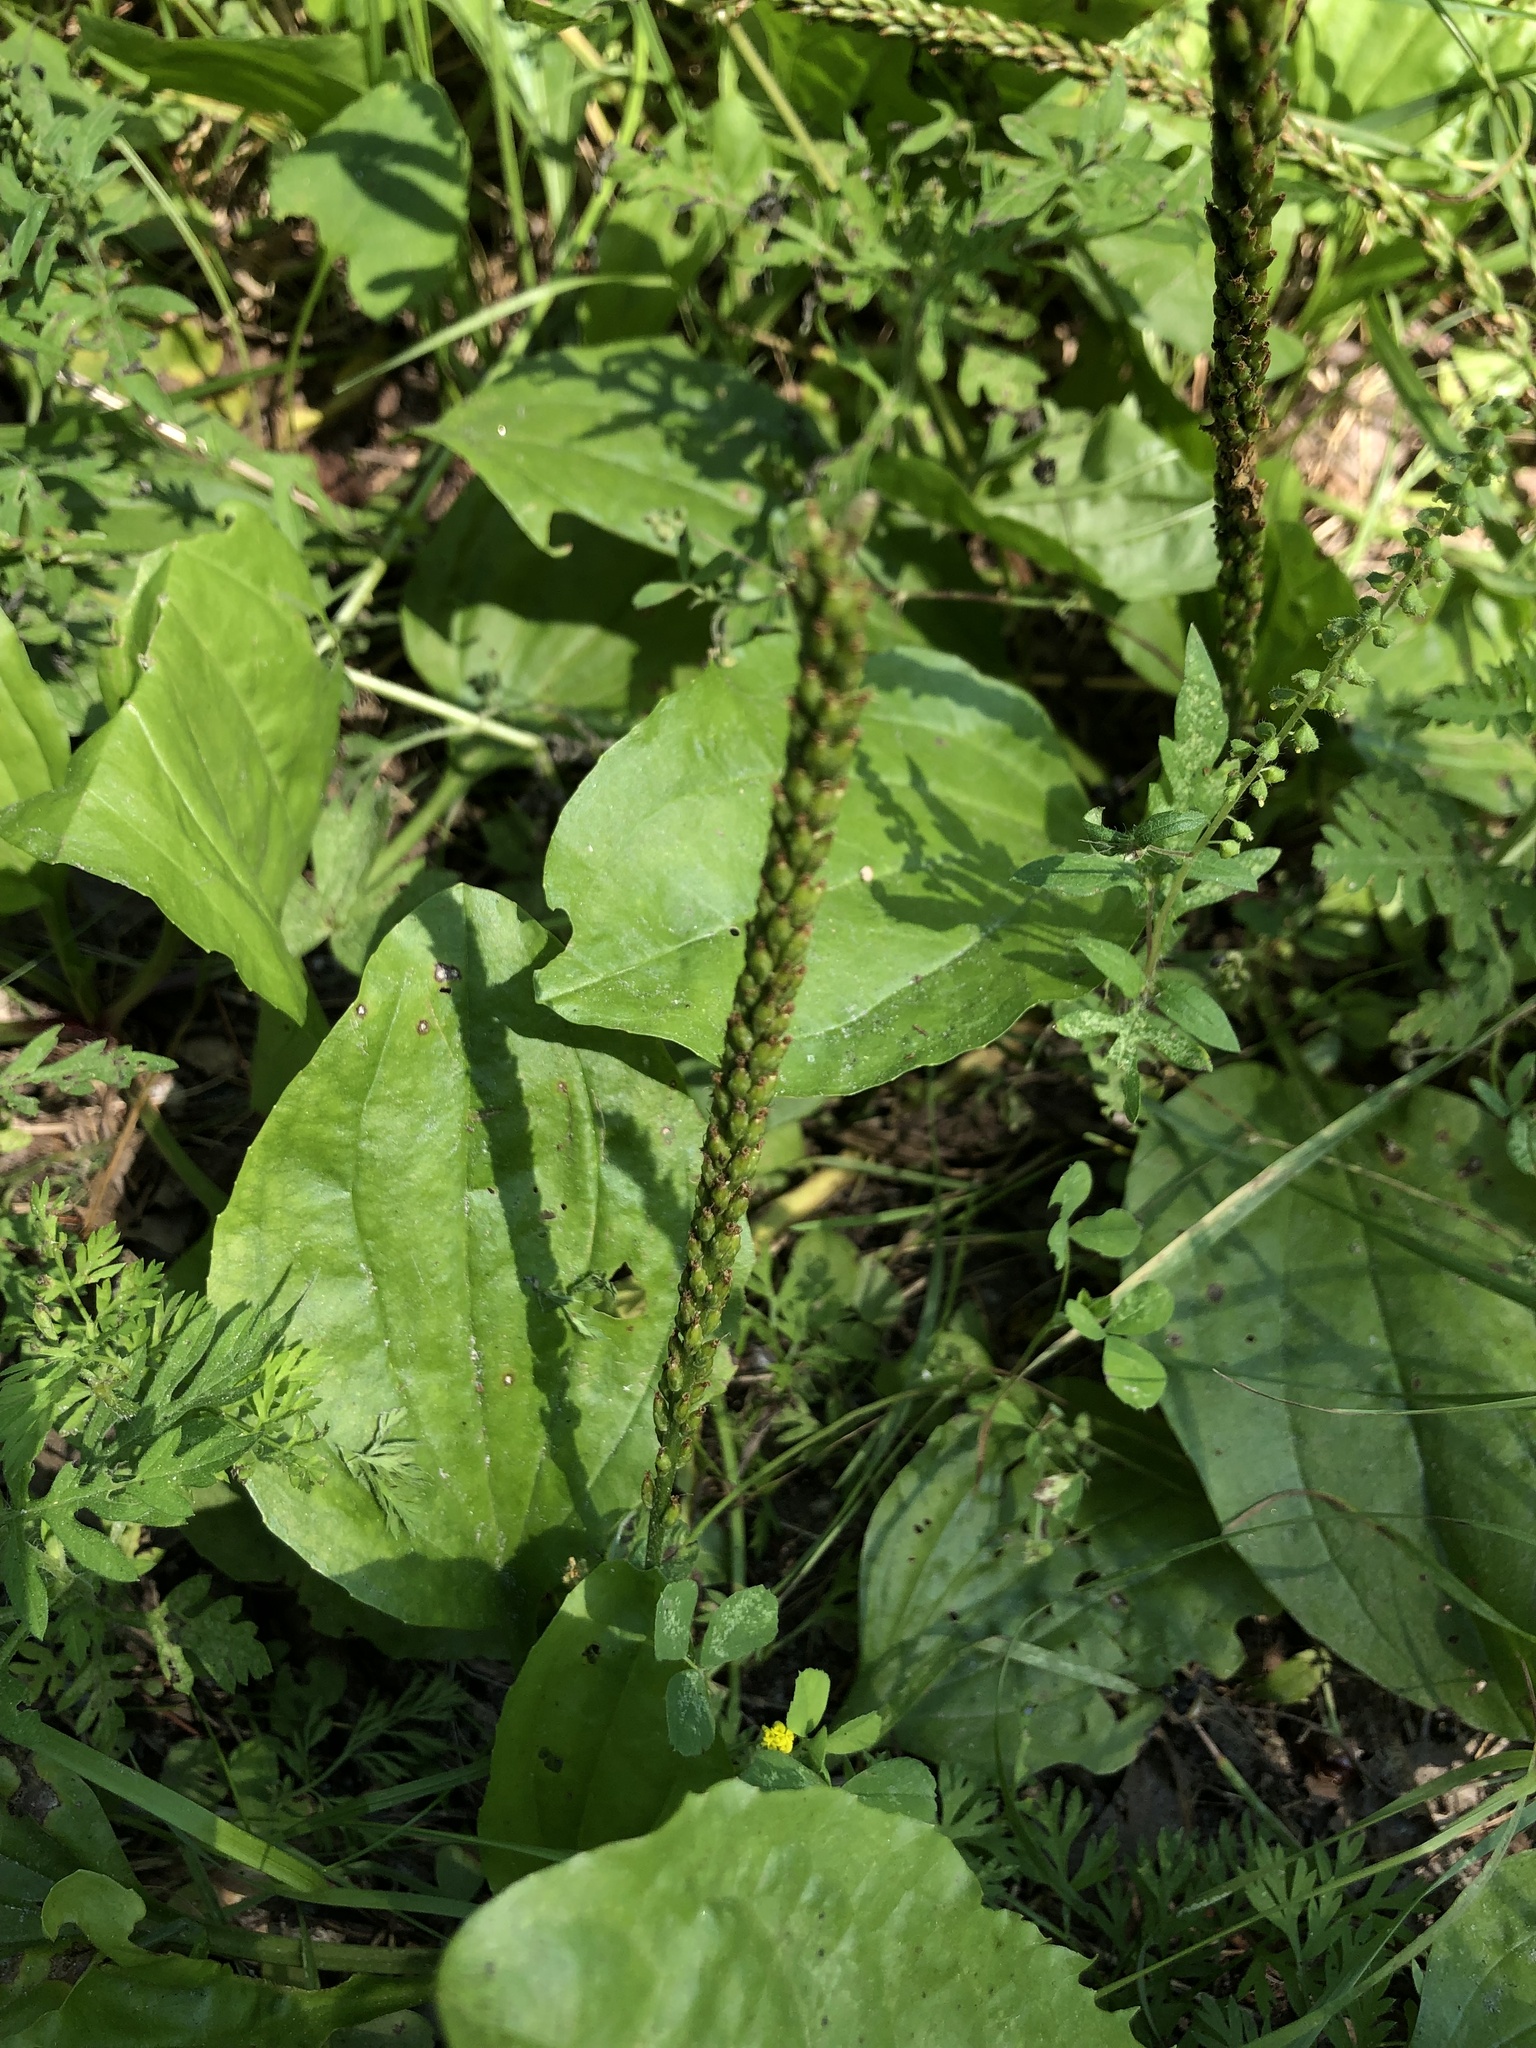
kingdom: Plantae
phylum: Tracheophyta
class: Magnoliopsida
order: Lamiales
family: Plantaginaceae
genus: Plantago
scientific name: Plantago major
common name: Common plantain
